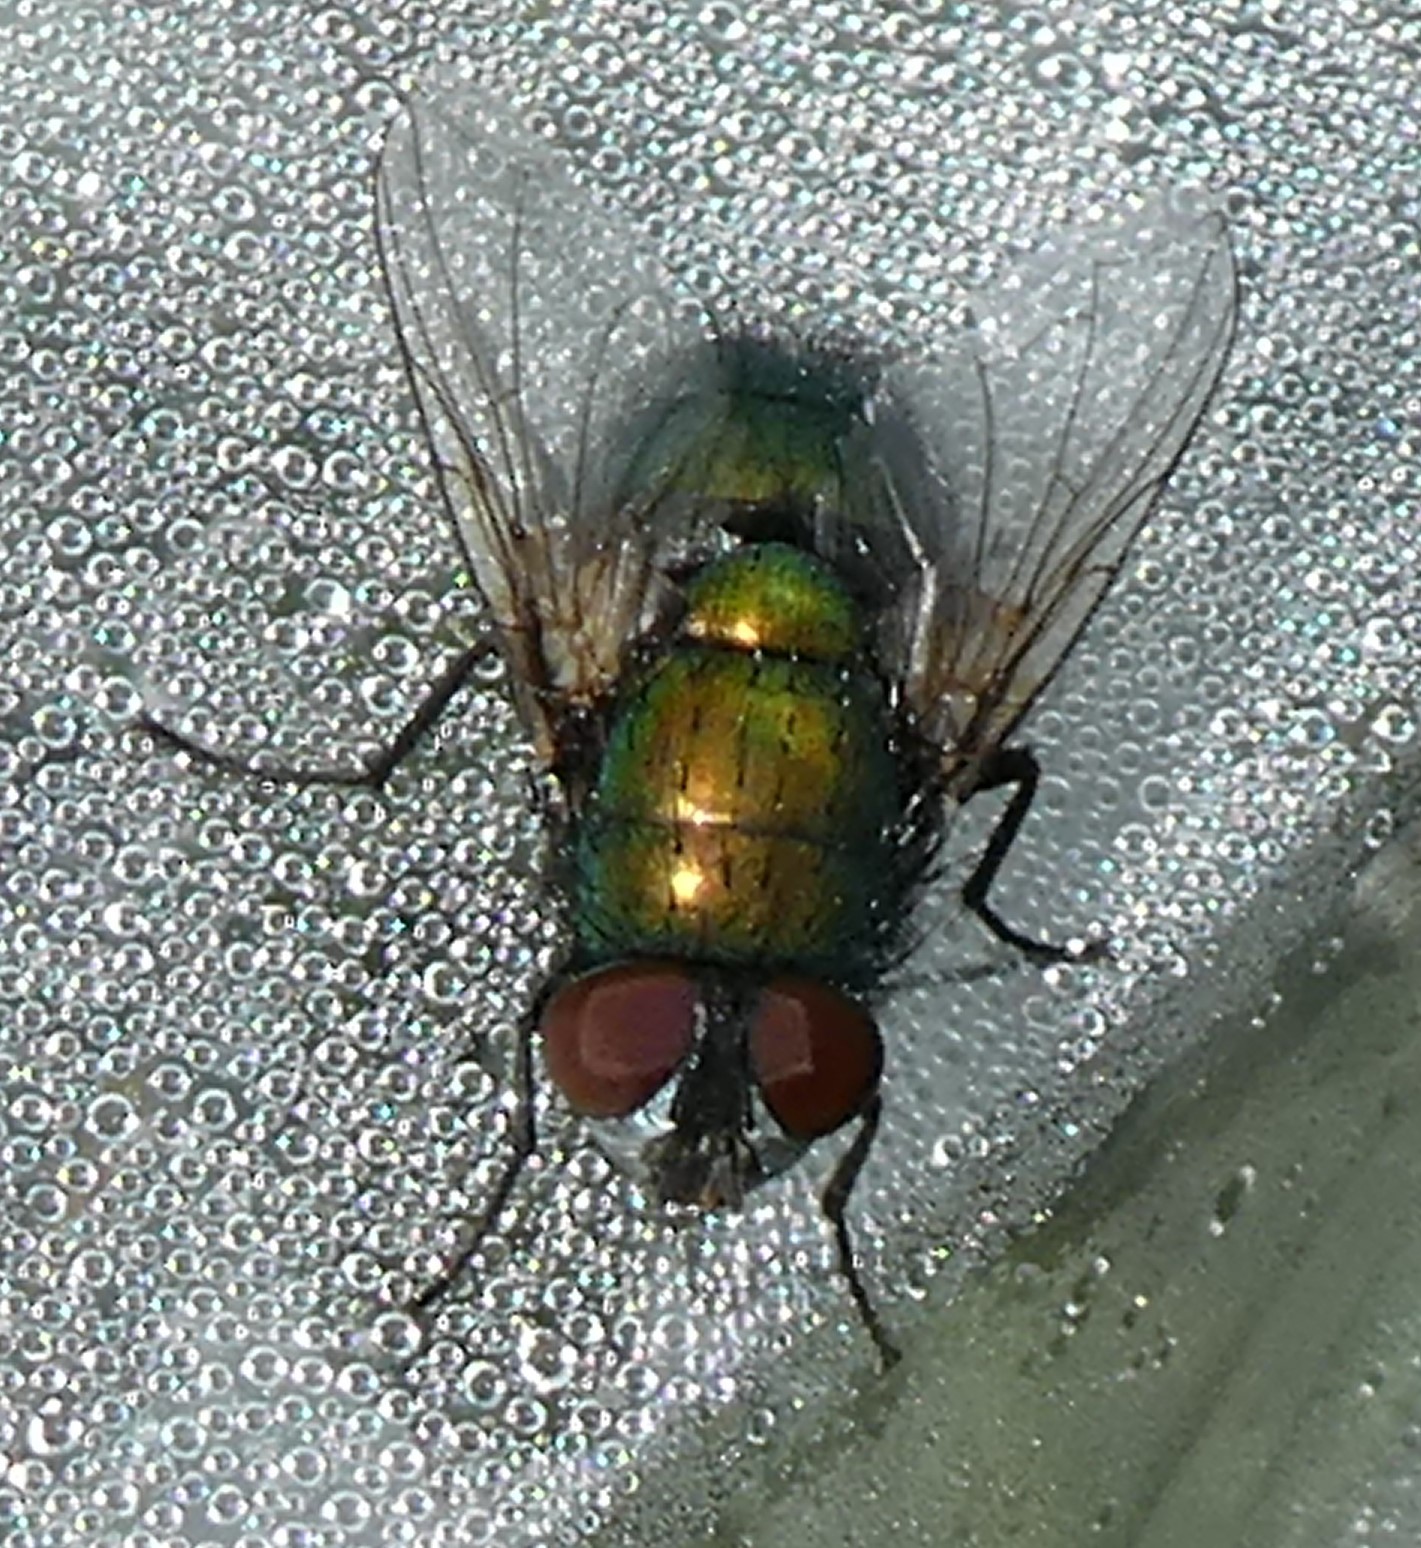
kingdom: Animalia
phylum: Arthropoda
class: Insecta
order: Diptera
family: Calliphoridae
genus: Lucilia
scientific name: Lucilia
